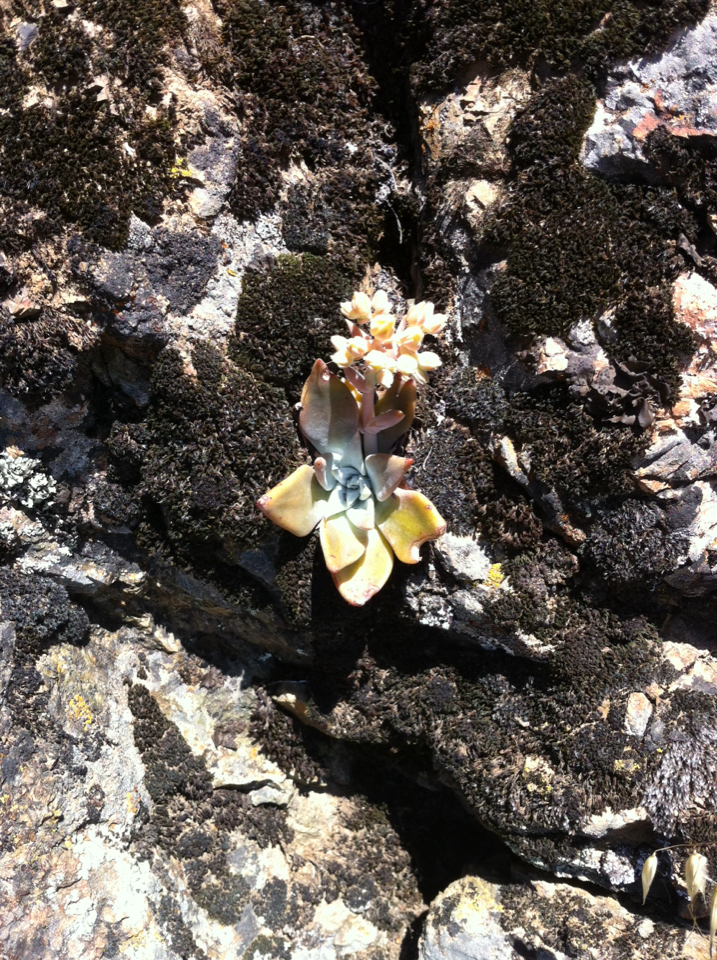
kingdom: Plantae
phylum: Tracheophyta
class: Magnoliopsida
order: Saxifragales
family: Crassulaceae
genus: Dudleya
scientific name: Dudleya cymosa
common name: Canyon dudleya
